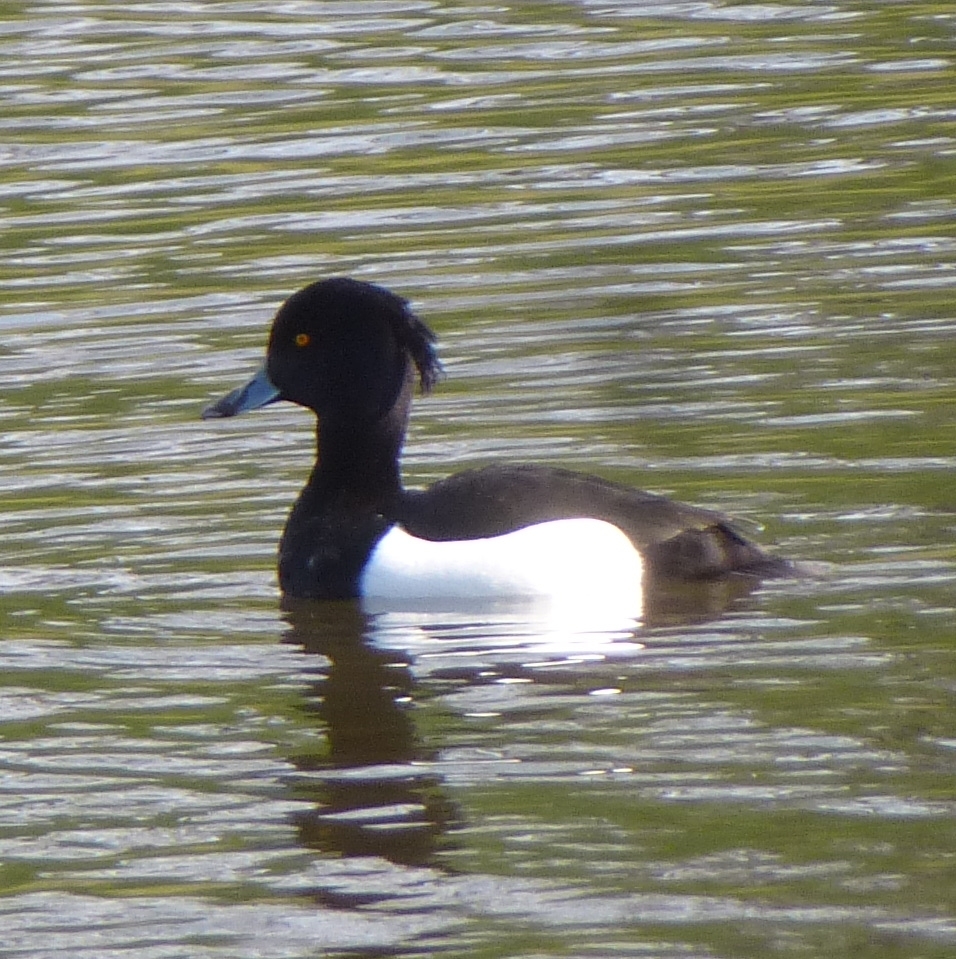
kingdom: Animalia
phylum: Chordata
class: Aves
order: Anseriformes
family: Anatidae
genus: Aythya
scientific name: Aythya fuligula
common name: Tufted duck
